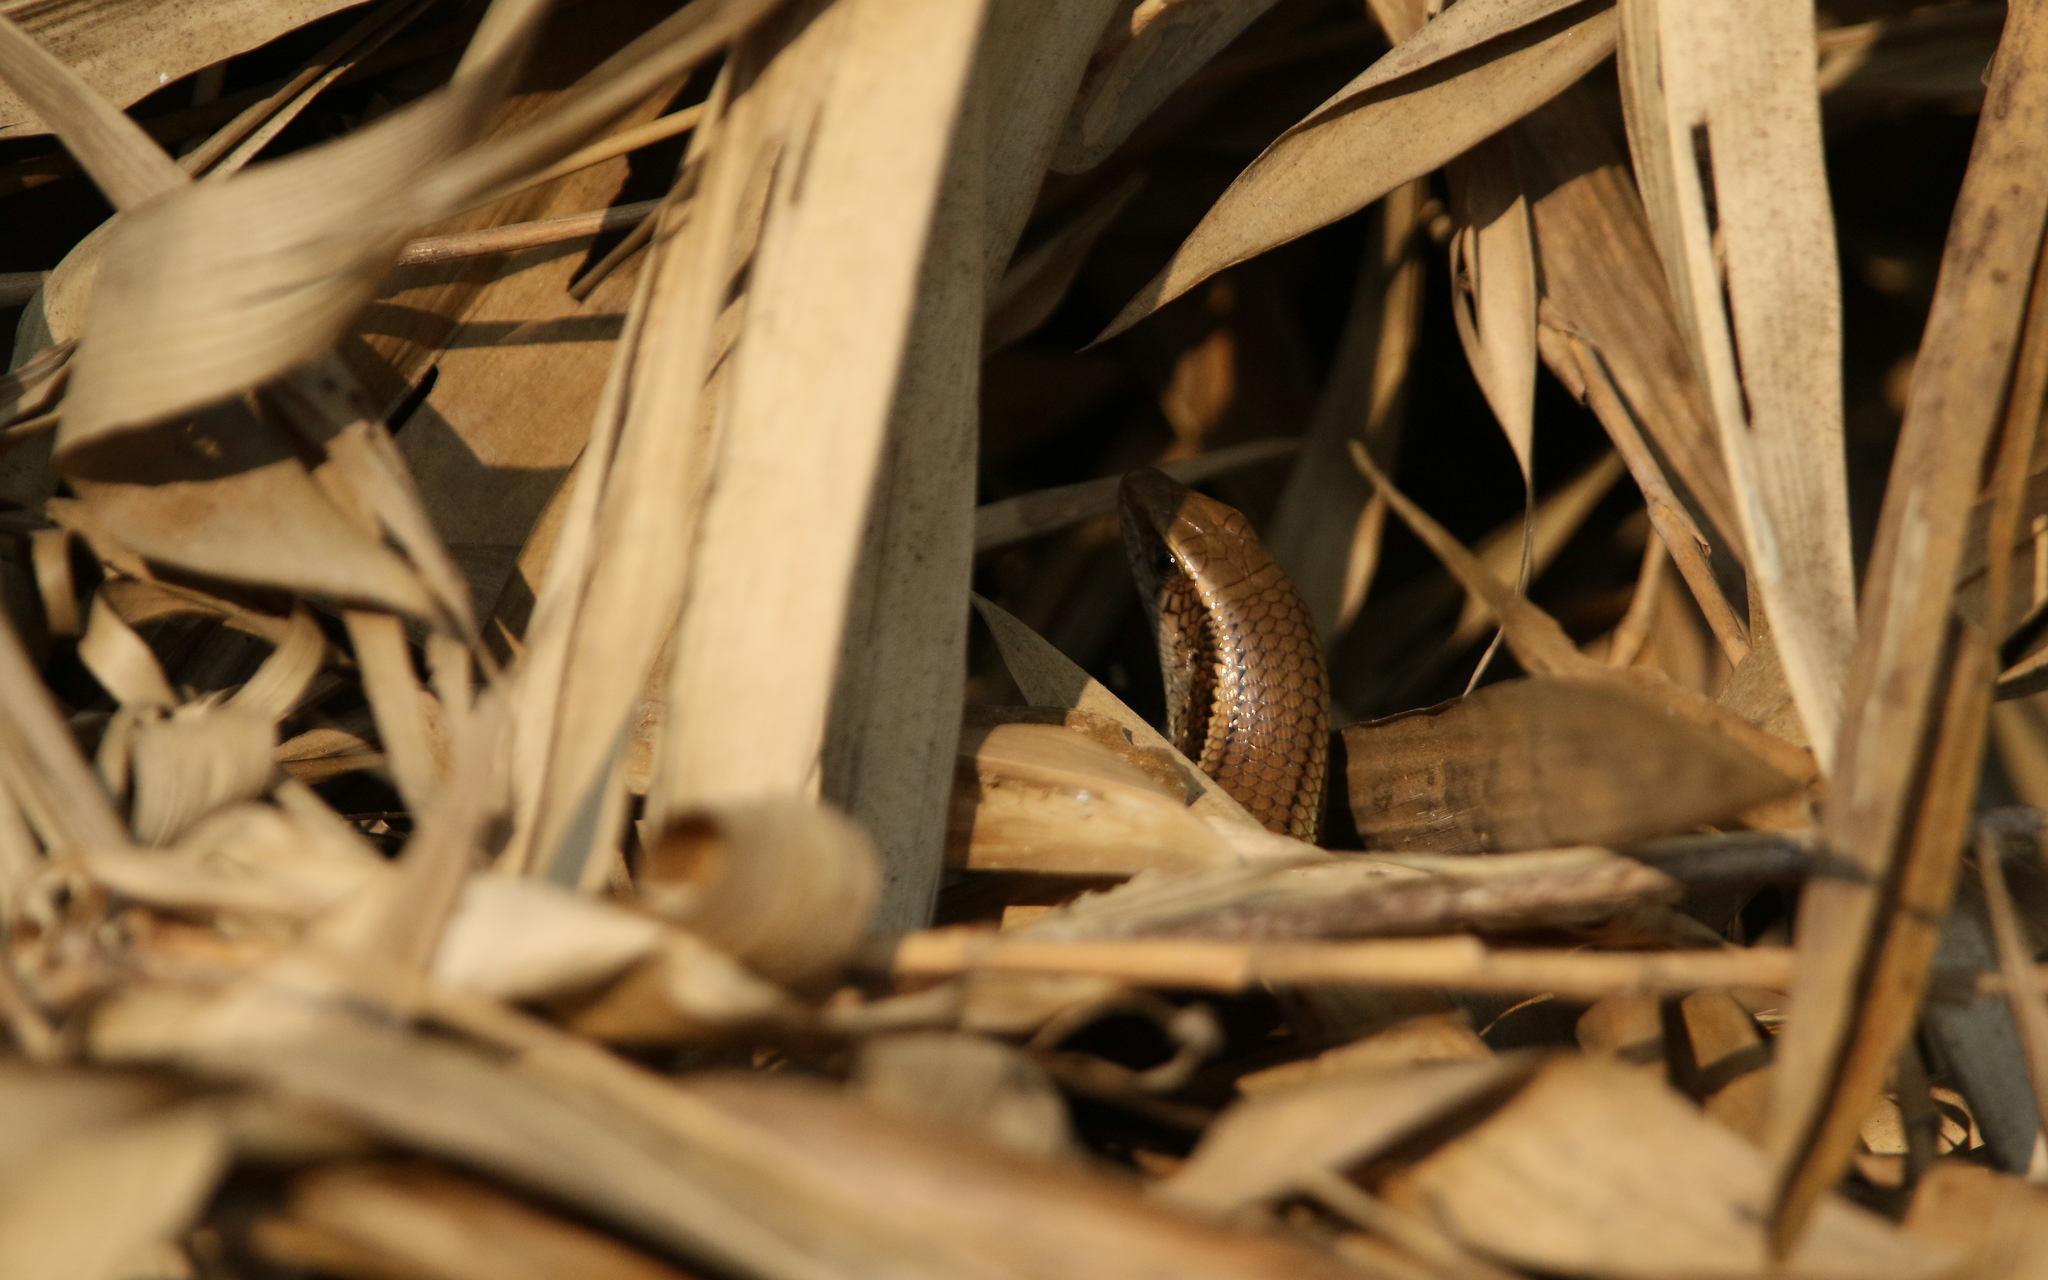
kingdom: Animalia
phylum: Chordata
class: Squamata
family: Scincidae
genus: Eutropis
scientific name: Eutropis multifasciata
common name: Common mabuya
